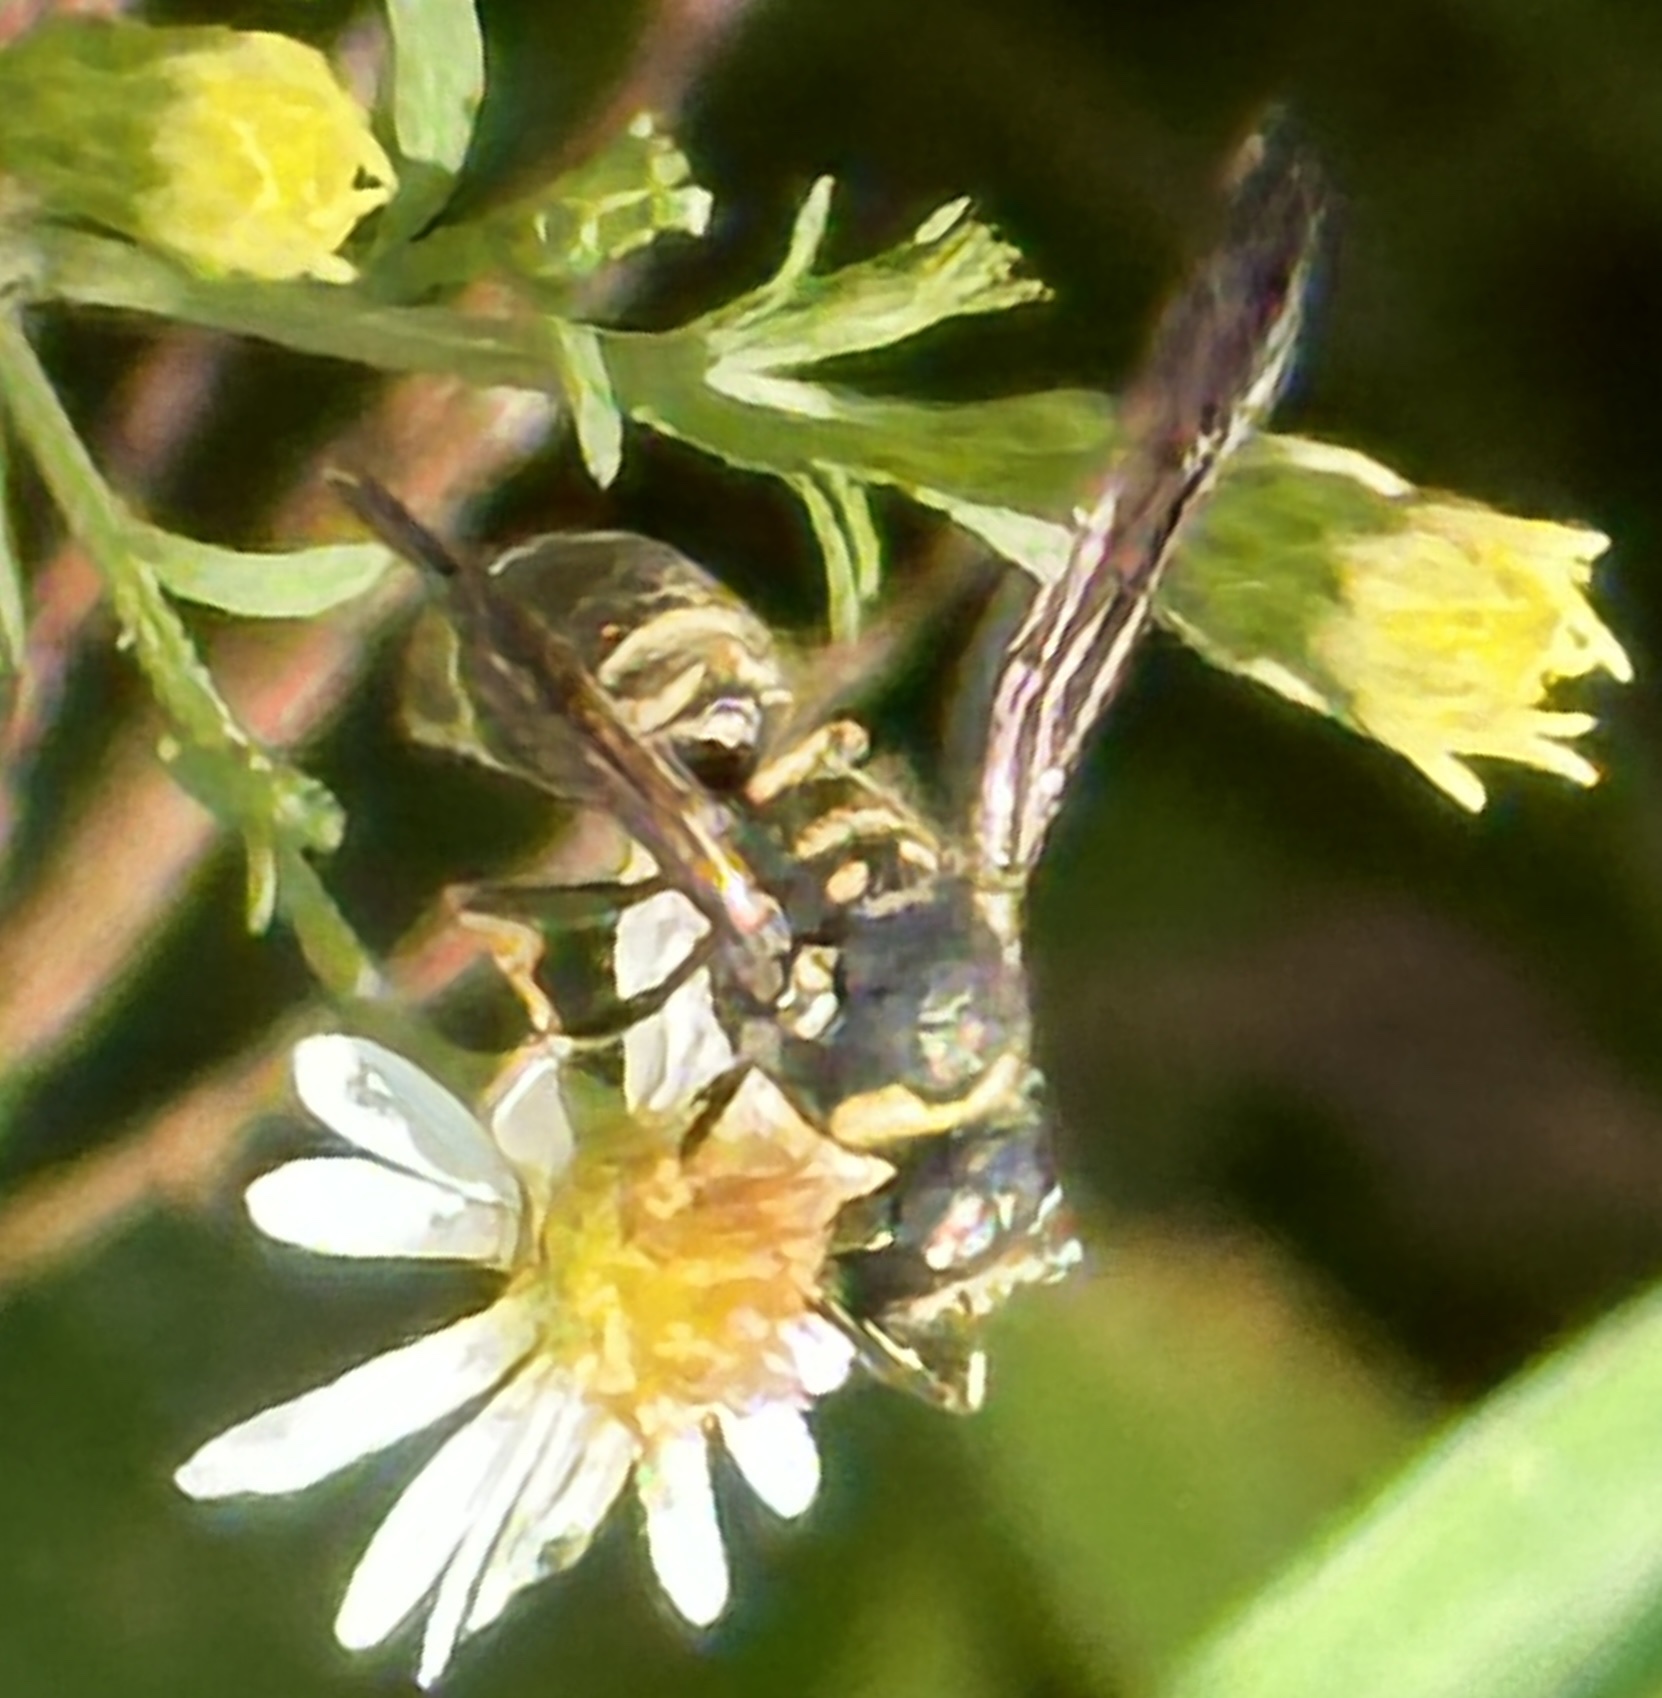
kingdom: Animalia
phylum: Arthropoda
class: Insecta
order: Hymenoptera
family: Vespidae
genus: Ancistrocerus
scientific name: Ancistrocerus adiabatus
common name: Bramble mason wasp
